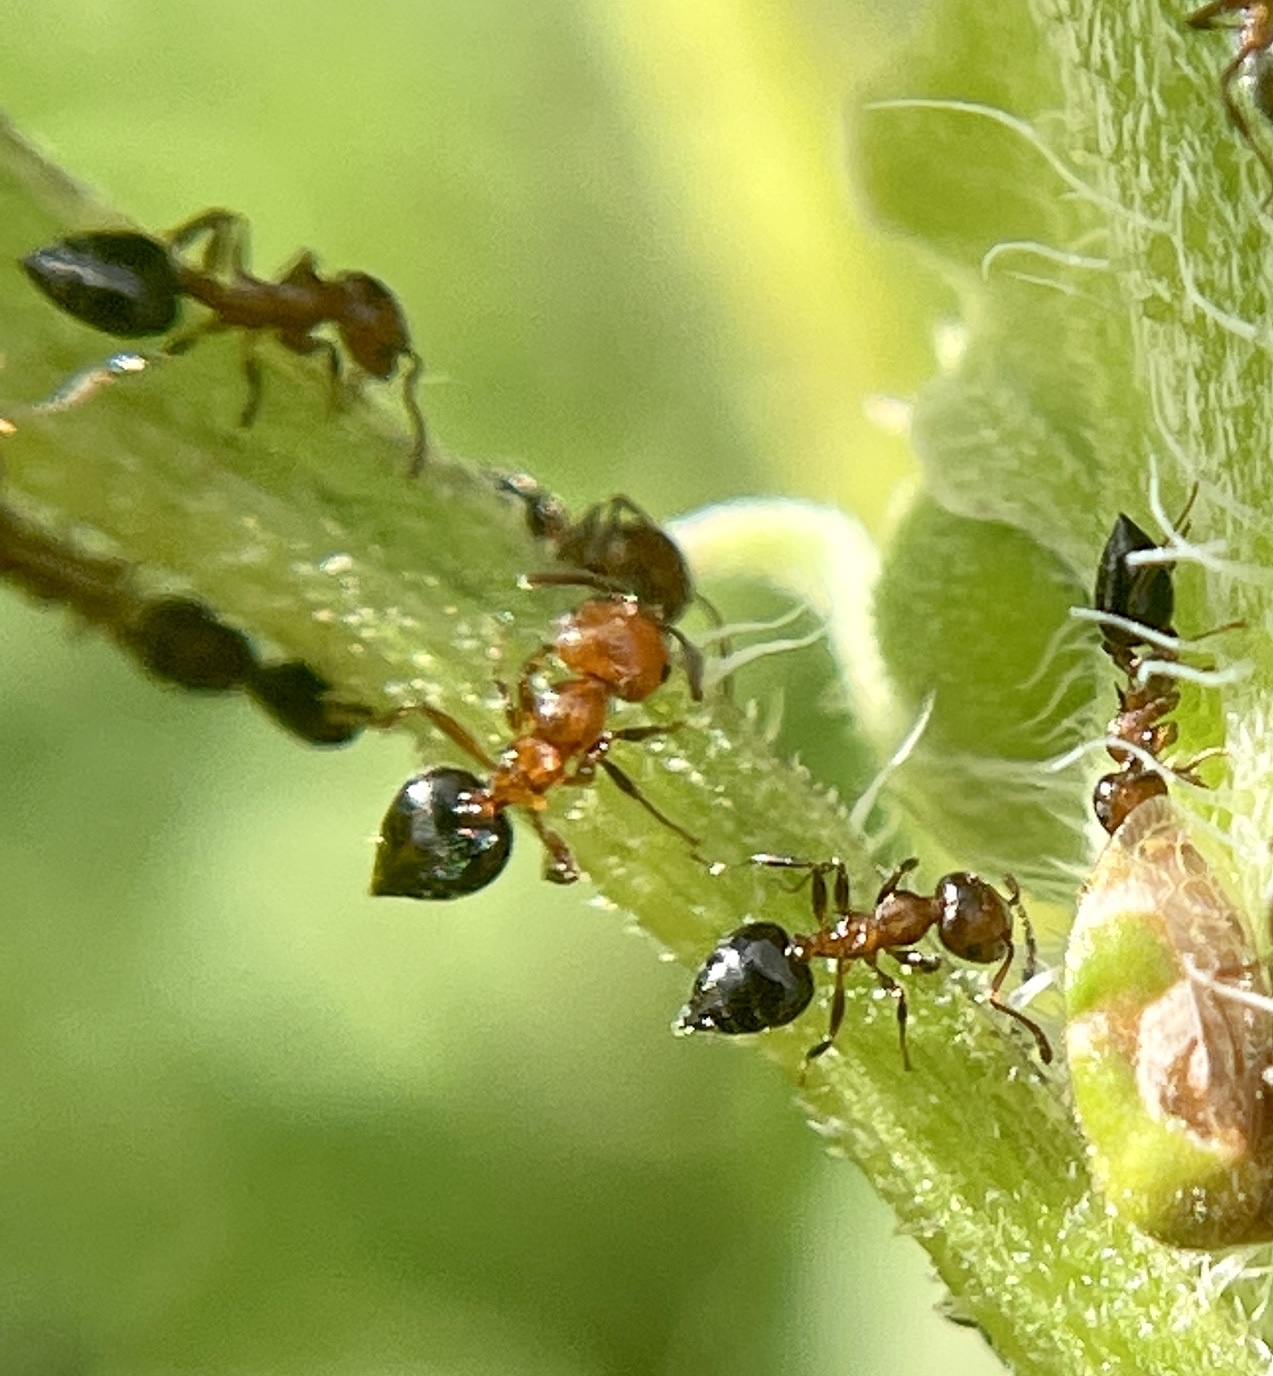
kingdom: Animalia
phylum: Arthropoda
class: Insecta
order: Hymenoptera
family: Formicidae
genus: Crematogaster
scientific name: Crematogaster laeviuscula
